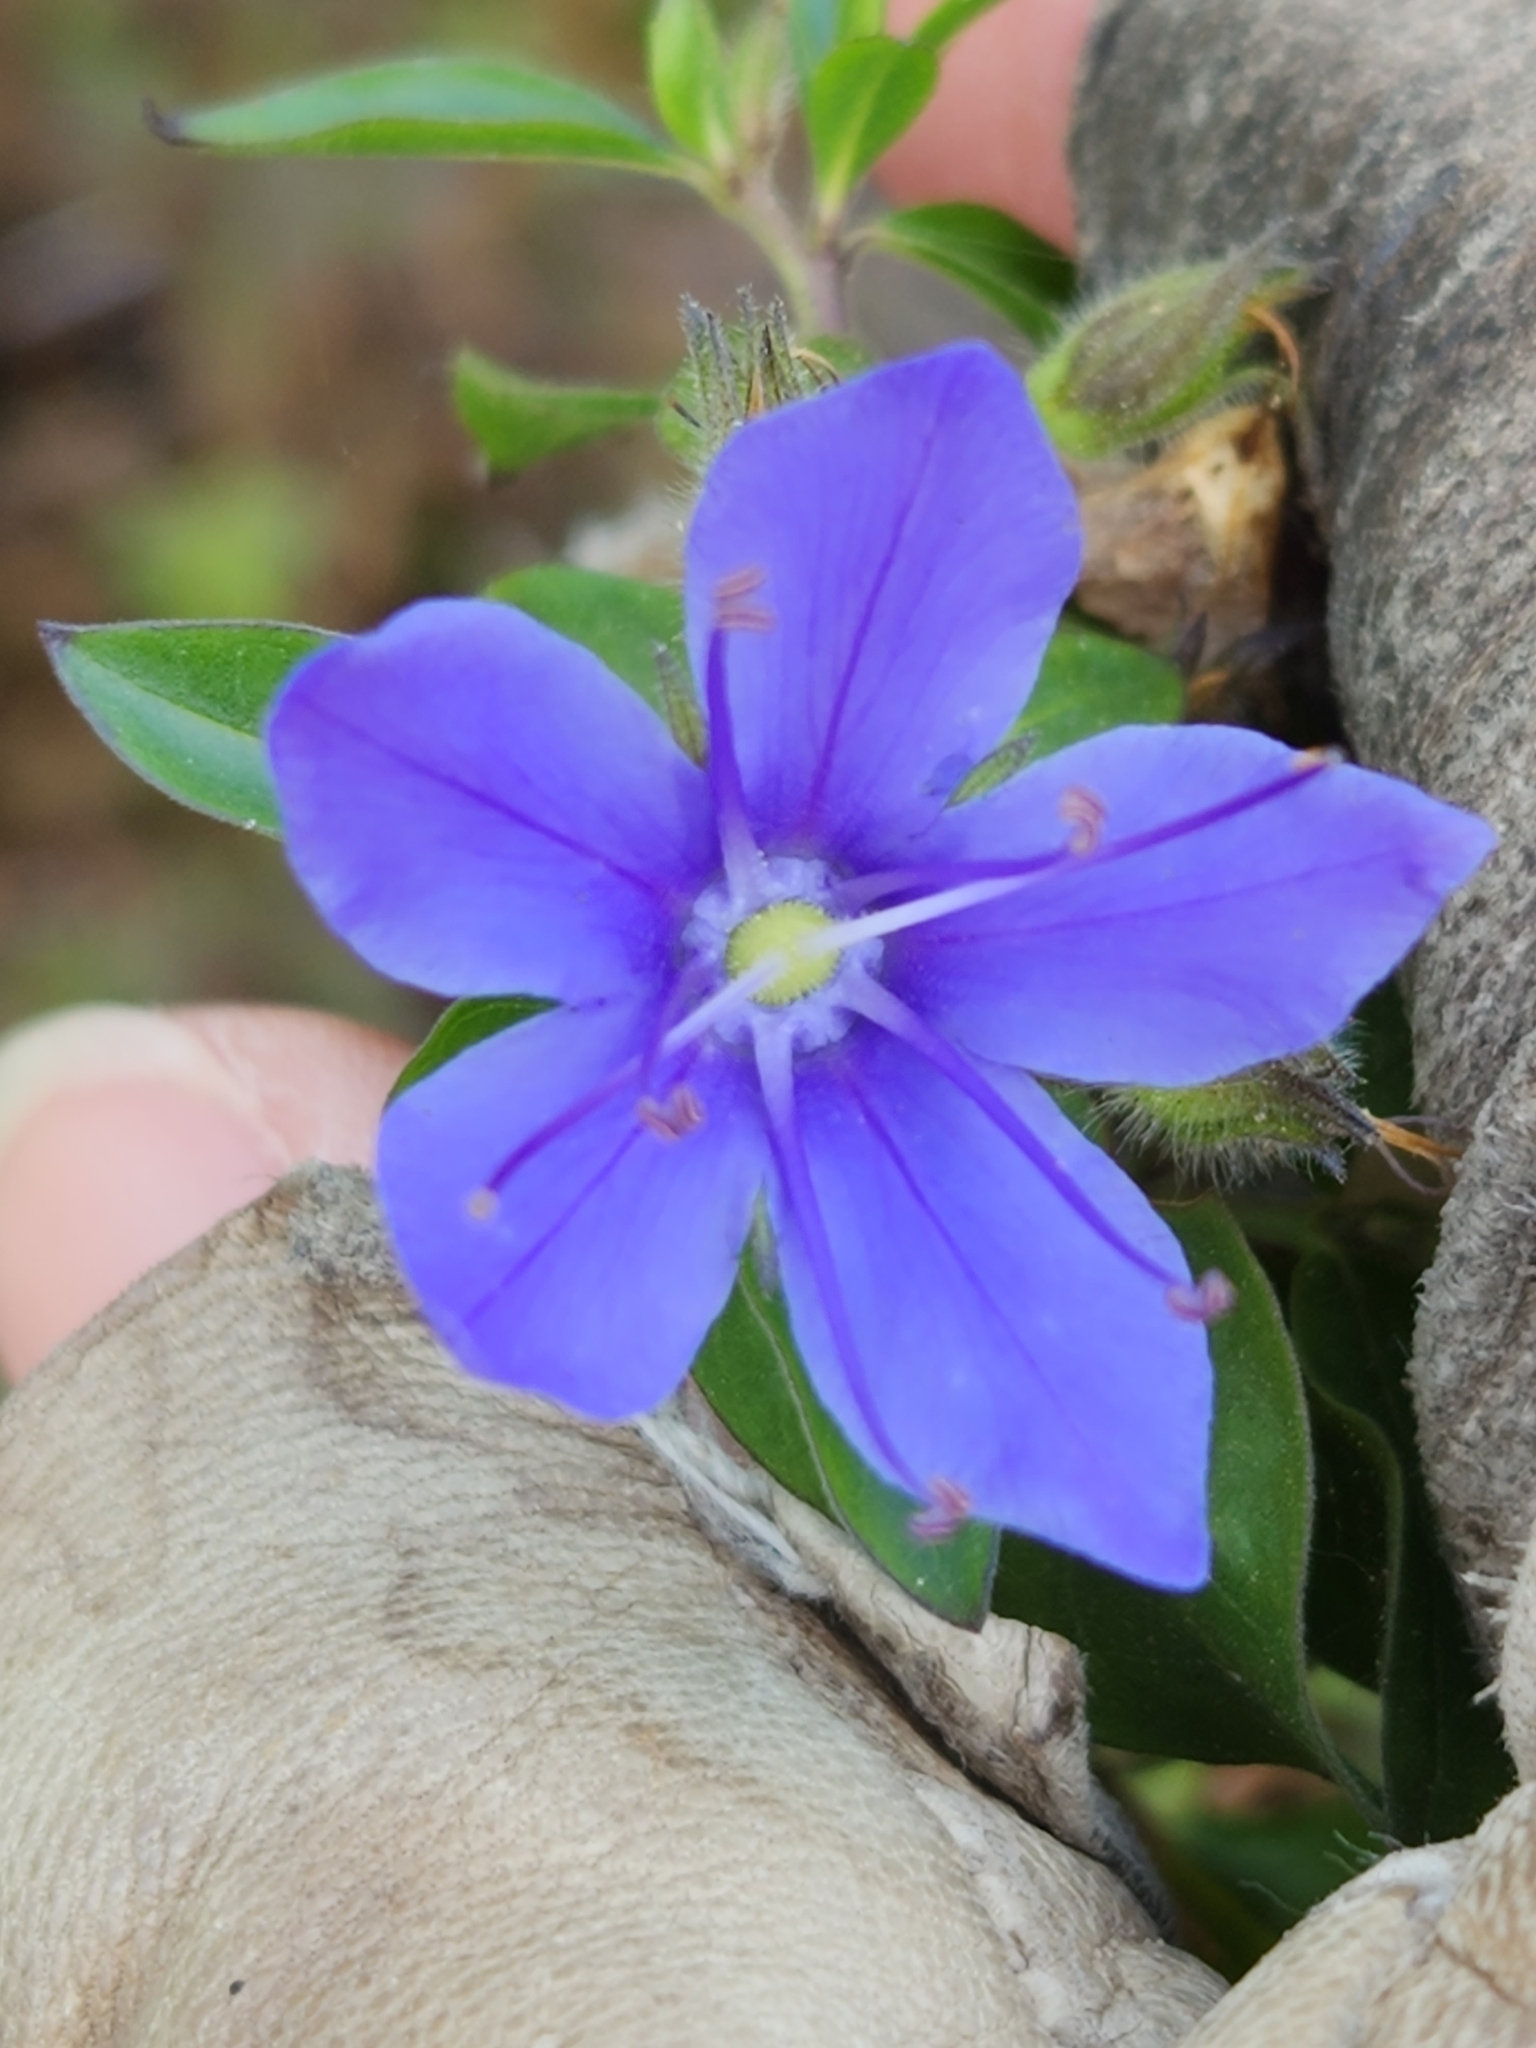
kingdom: Plantae
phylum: Tracheophyta
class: Magnoliopsida
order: Solanales
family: Hydroleaceae
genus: Hydrolea
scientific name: Hydrolea ovata
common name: Ovate false fiddleleaf
